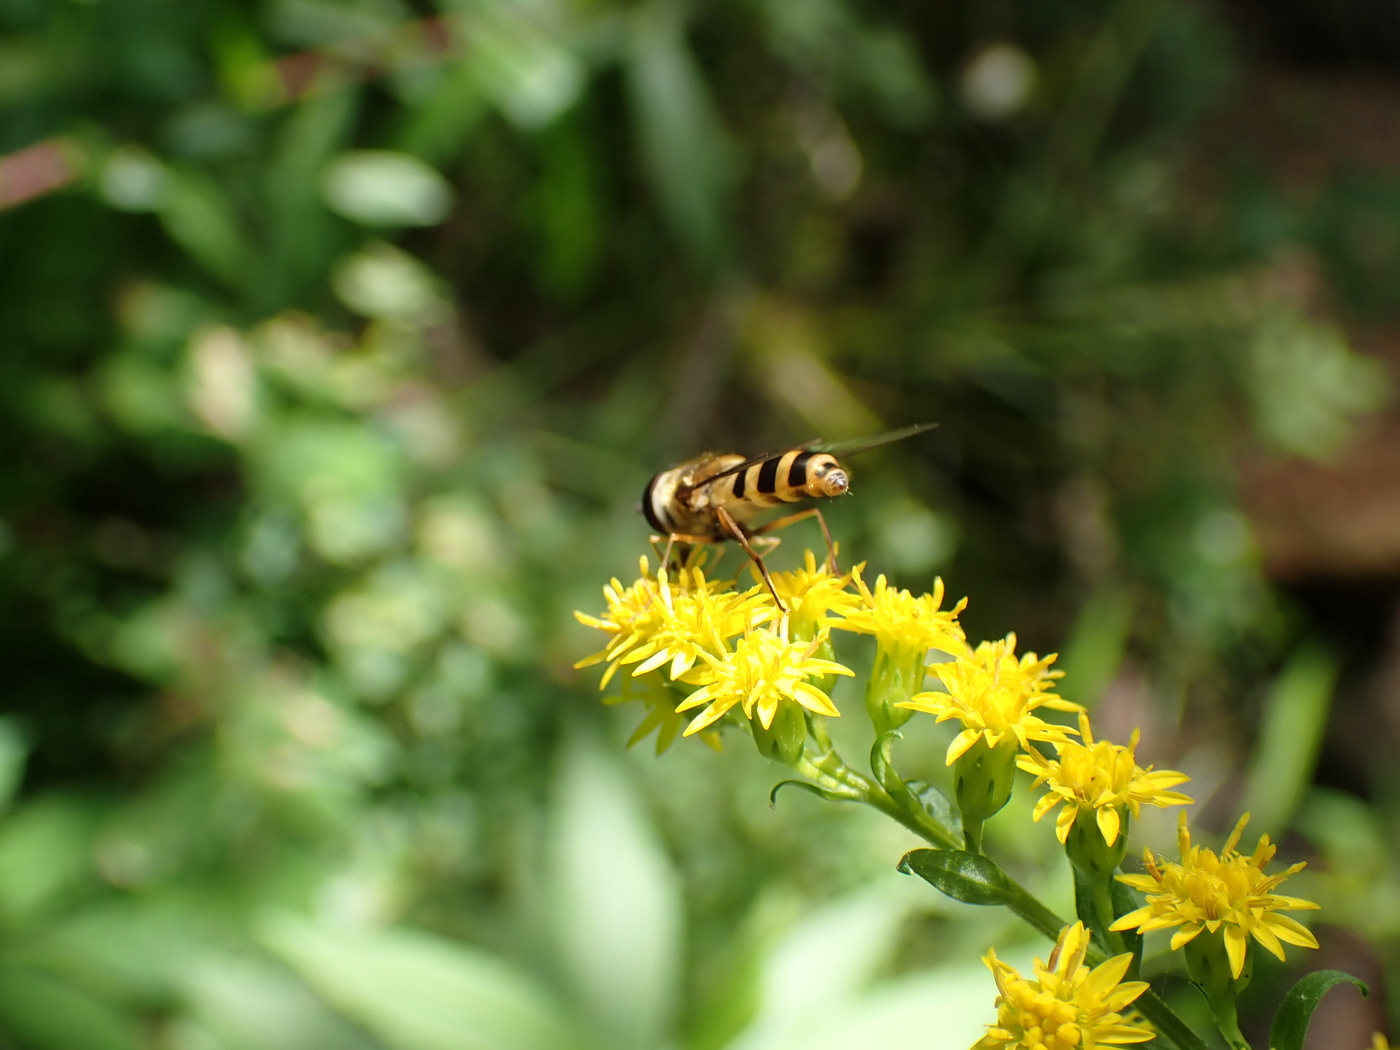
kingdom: Animalia
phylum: Arthropoda
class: Insecta
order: Diptera
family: Syrphidae
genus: Epistrophe
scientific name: Epistrophe grossulariae
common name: Black-horned smoothtail
